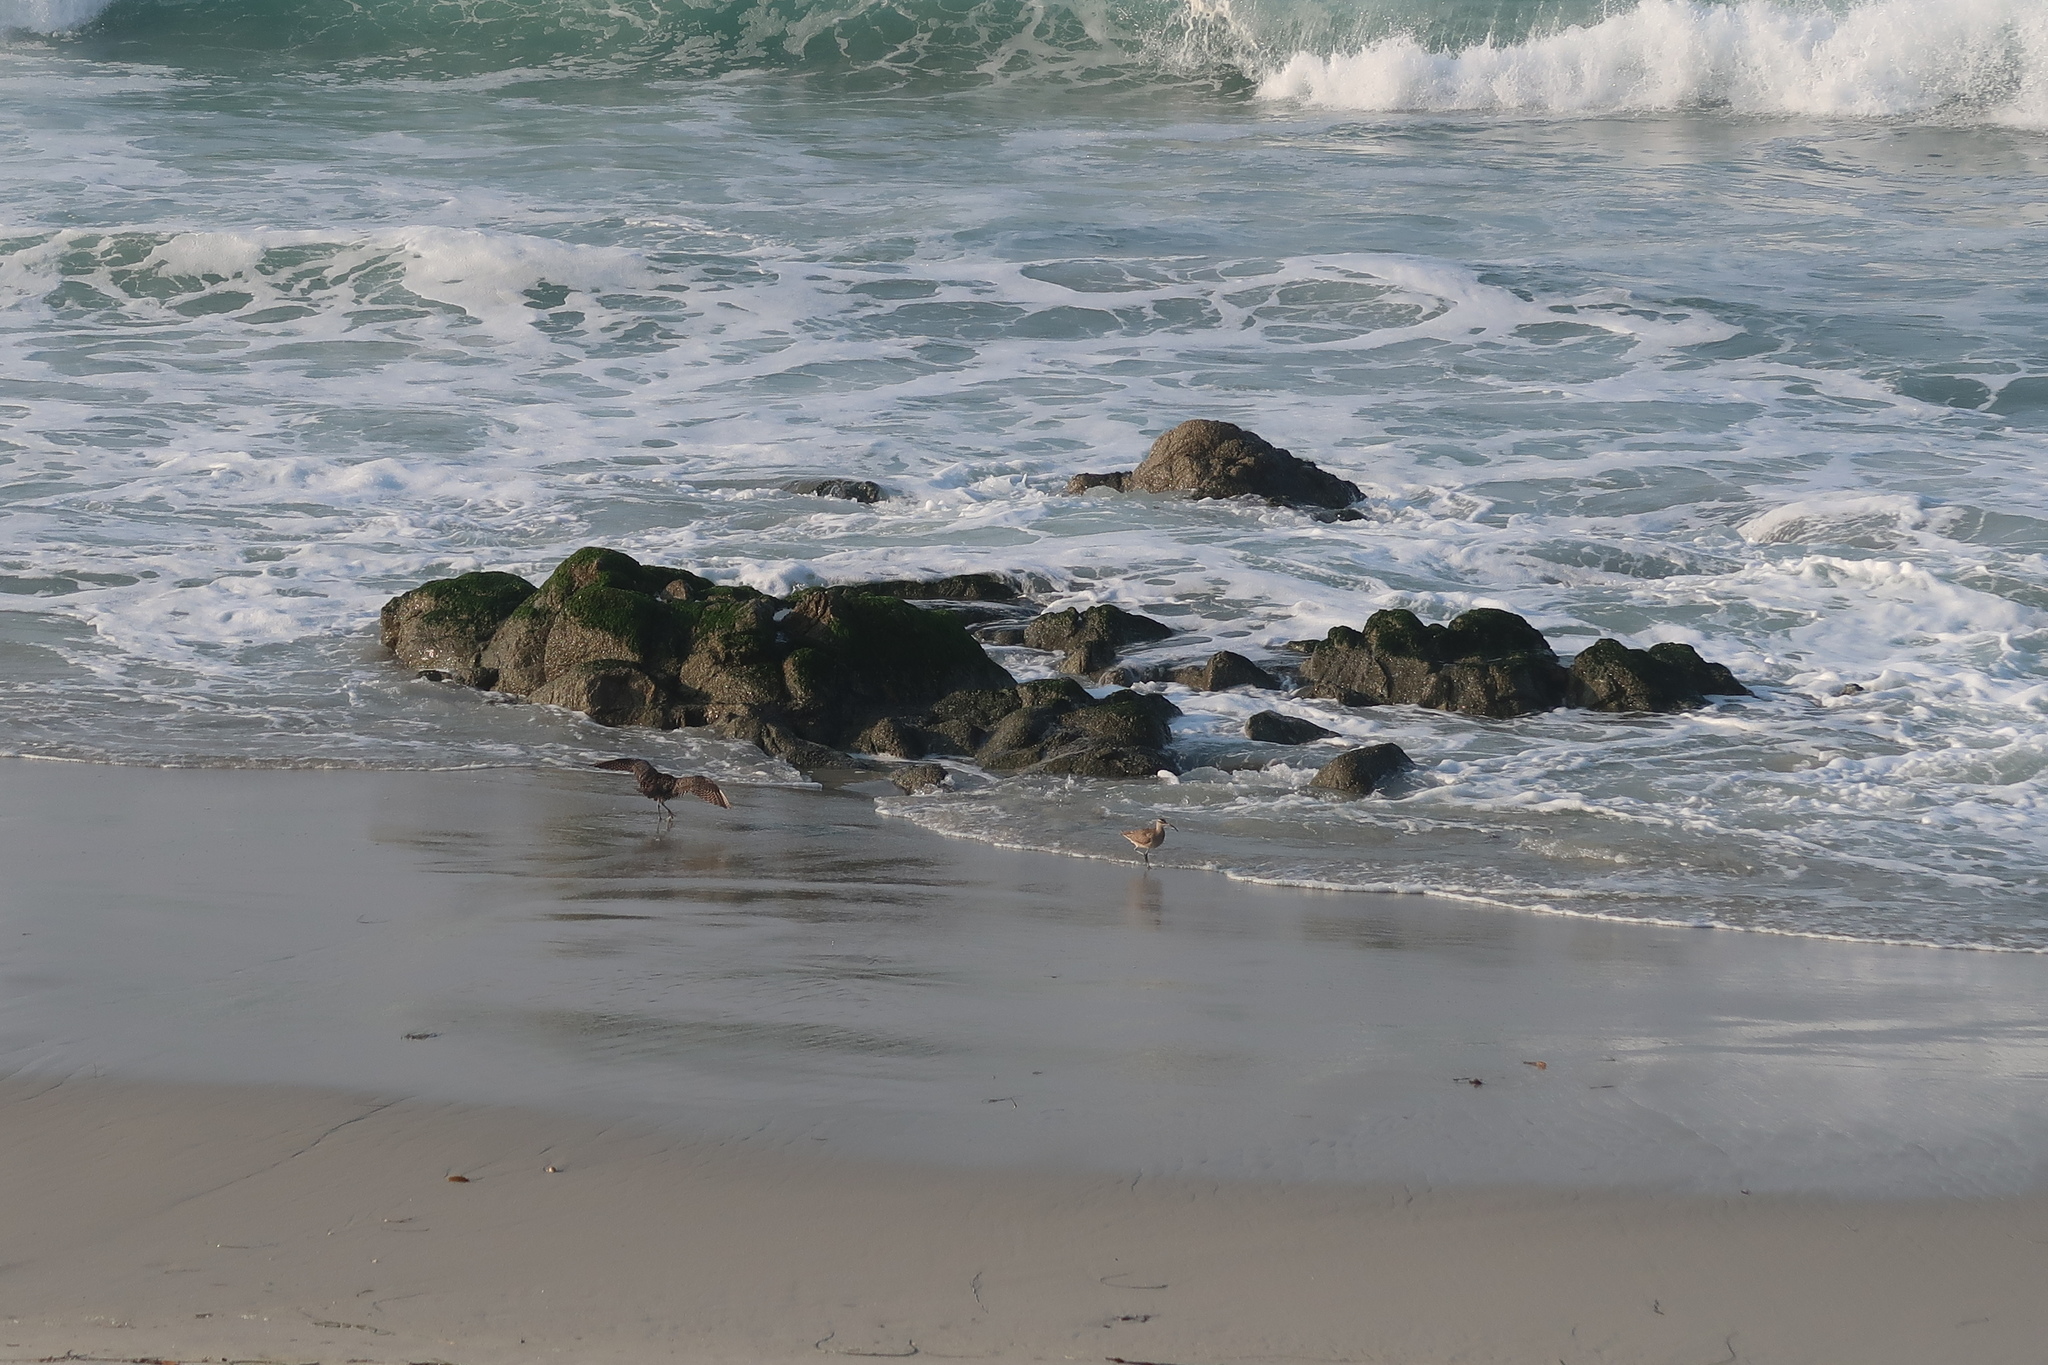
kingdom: Animalia
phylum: Chordata
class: Aves
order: Charadriiformes
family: Scolopacidae
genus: Numenius
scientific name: Numenius phaeopus
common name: Whimbrel
